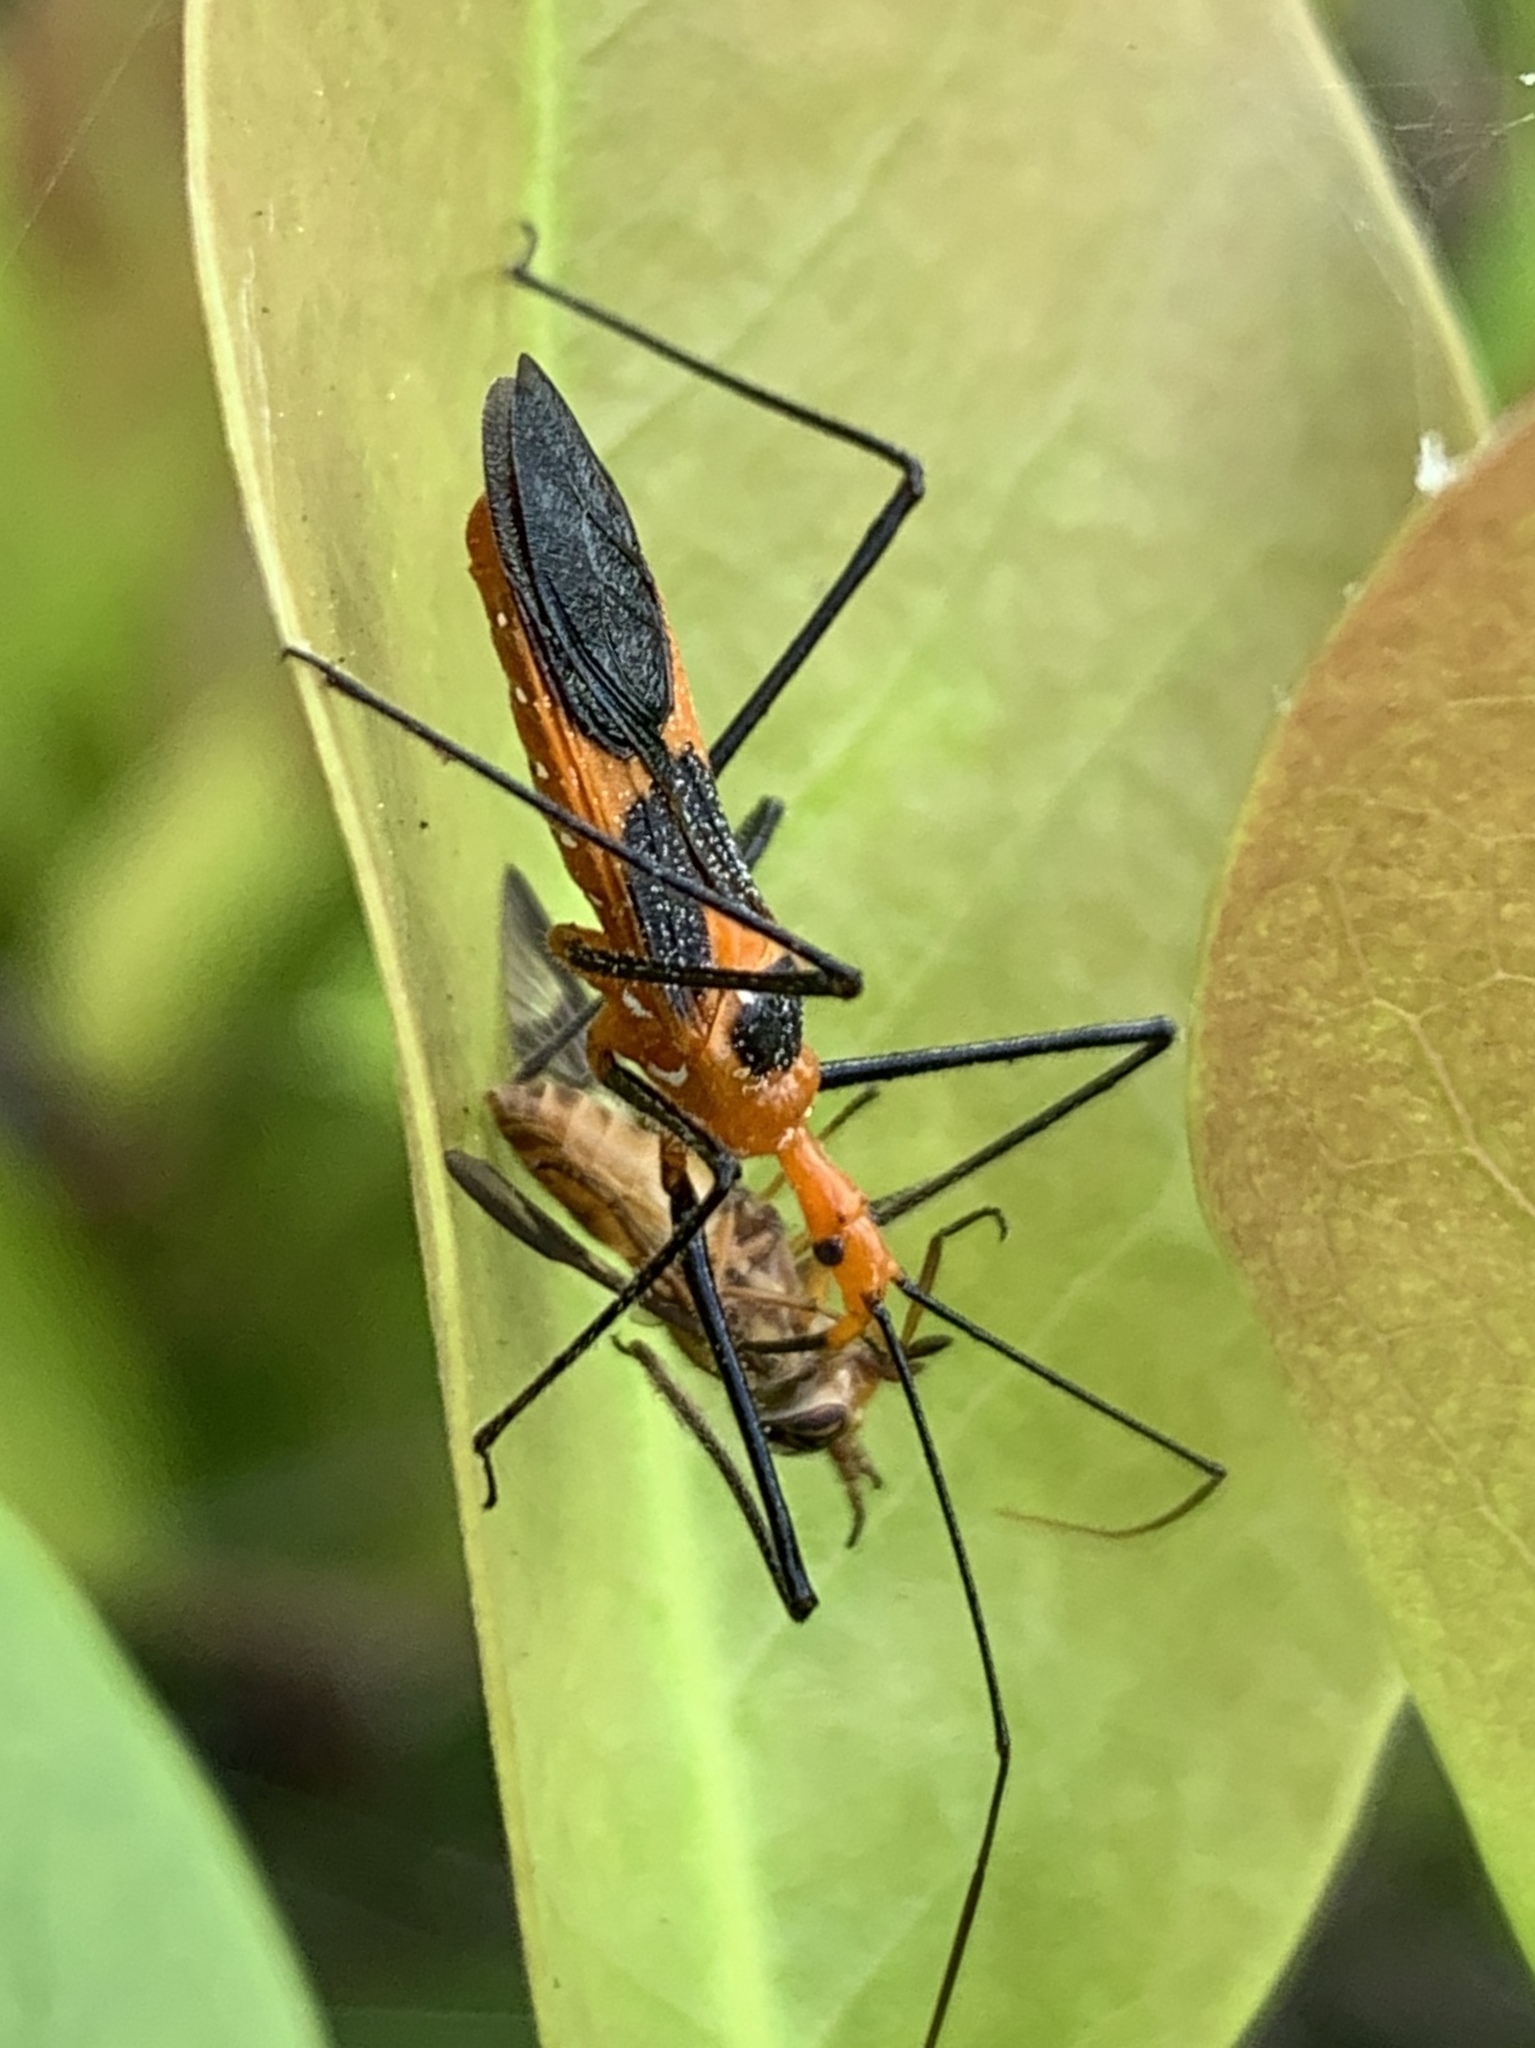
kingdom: Animalia
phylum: Arthropoda
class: Insecta
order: Hemiptera
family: Reduviidae
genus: Zelus
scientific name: Zelus longipes
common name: Milkweed assassin bug
